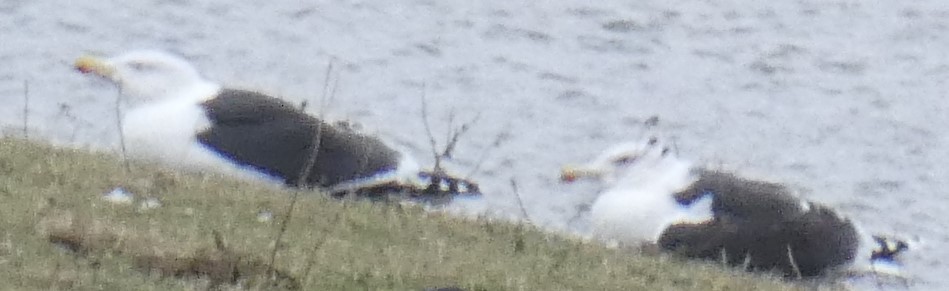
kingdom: Animalia
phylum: Chordata
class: Aves
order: Charadriiformes
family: Laridae
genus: Larus
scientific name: Larus marinus
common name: Great black-backed gull
